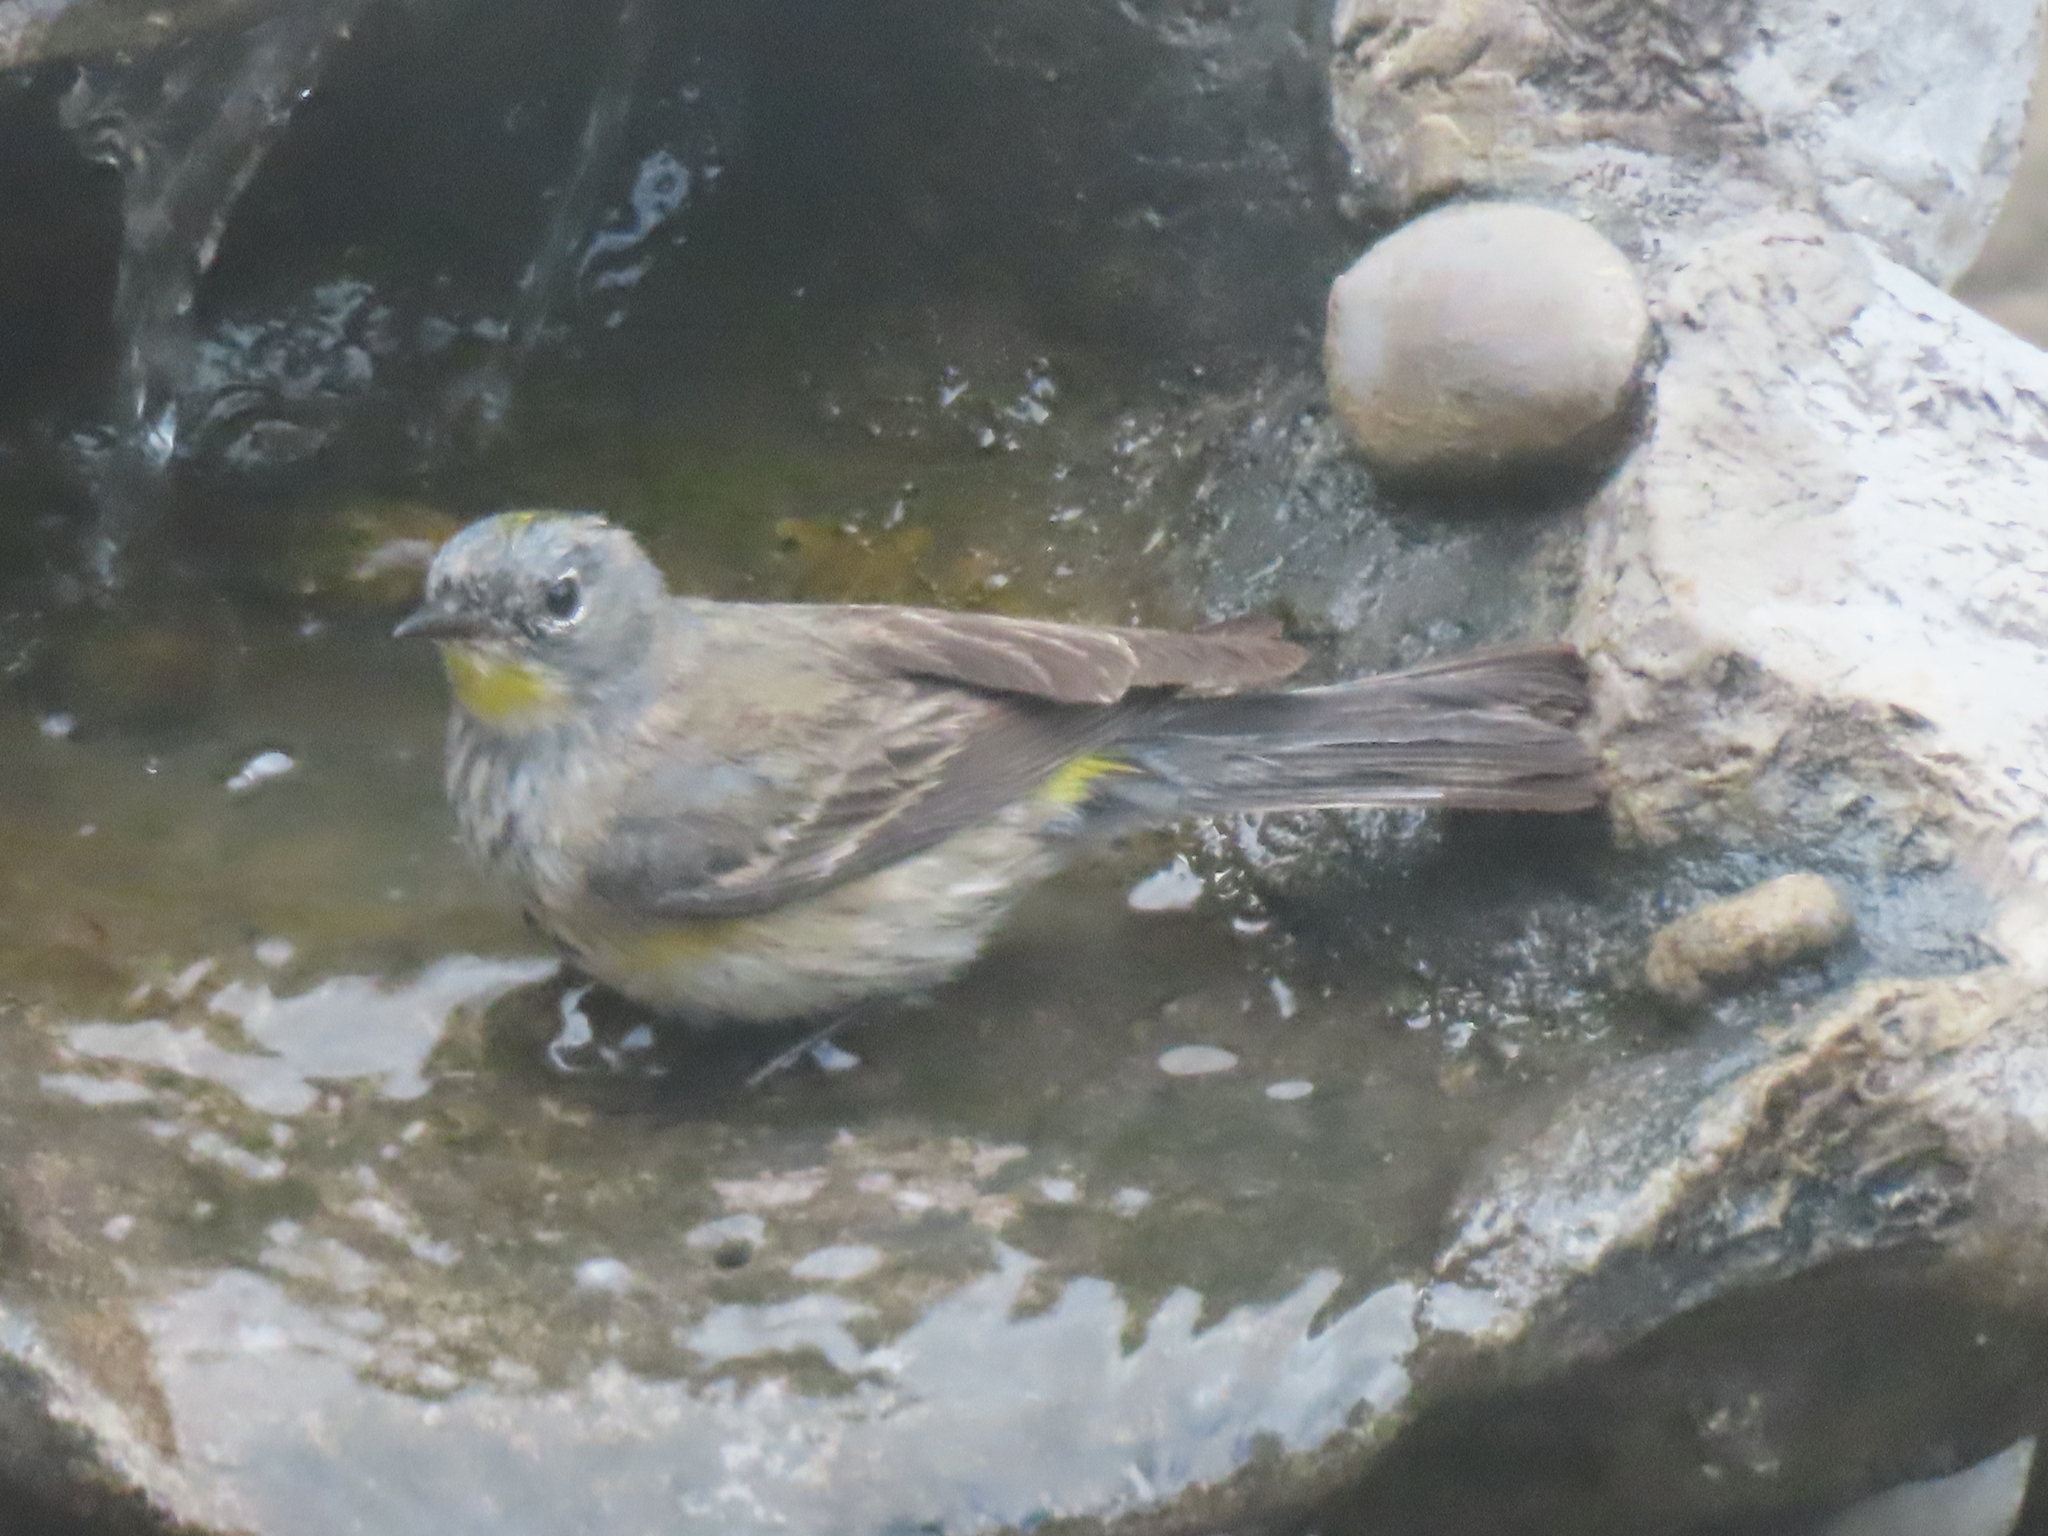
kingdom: Animalia
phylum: Chordata
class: Aves
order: Passeriformes
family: Parulidae
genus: Setophaga
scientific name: Setophaga coronata
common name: Myrtle warbler
